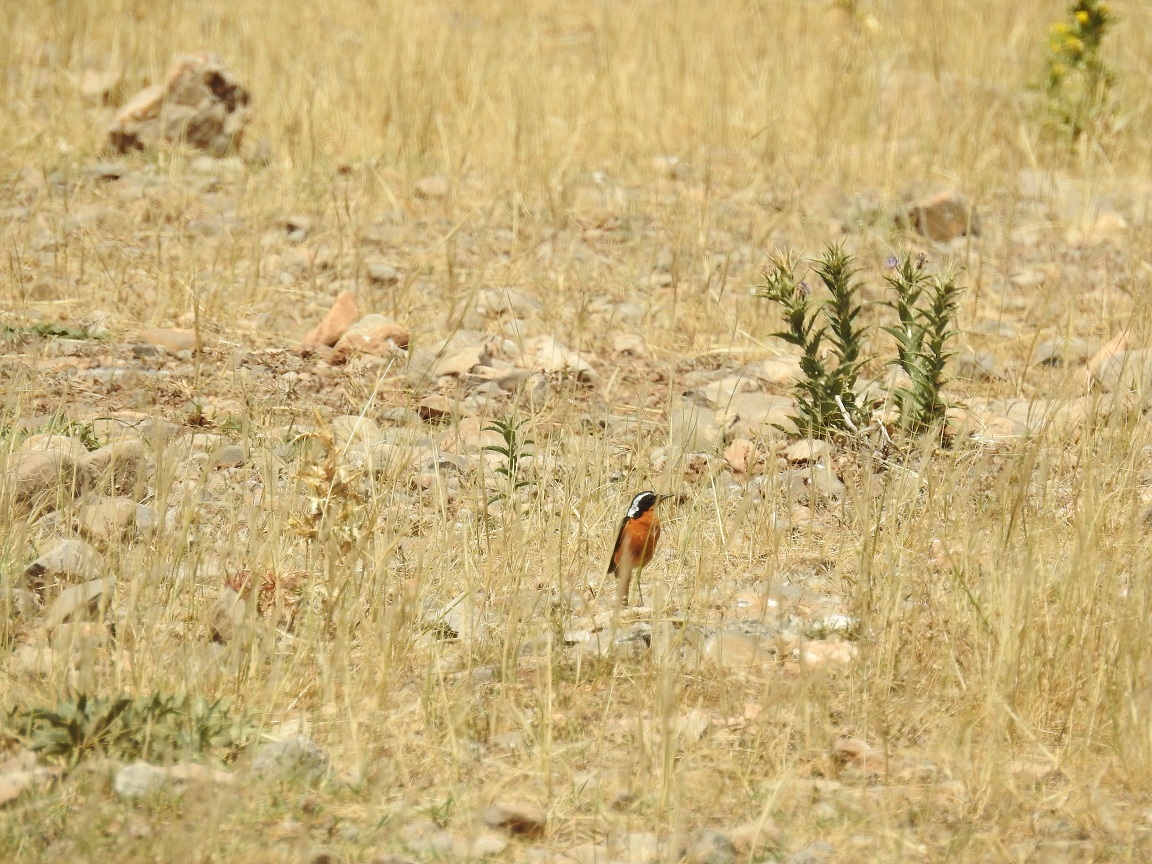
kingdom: Animalia
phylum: Chordata
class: Aves
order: Passeriformes
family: Muscicapidae
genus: Phoenicurus
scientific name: Phoenicurus moussieri
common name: Moussier's redstart
